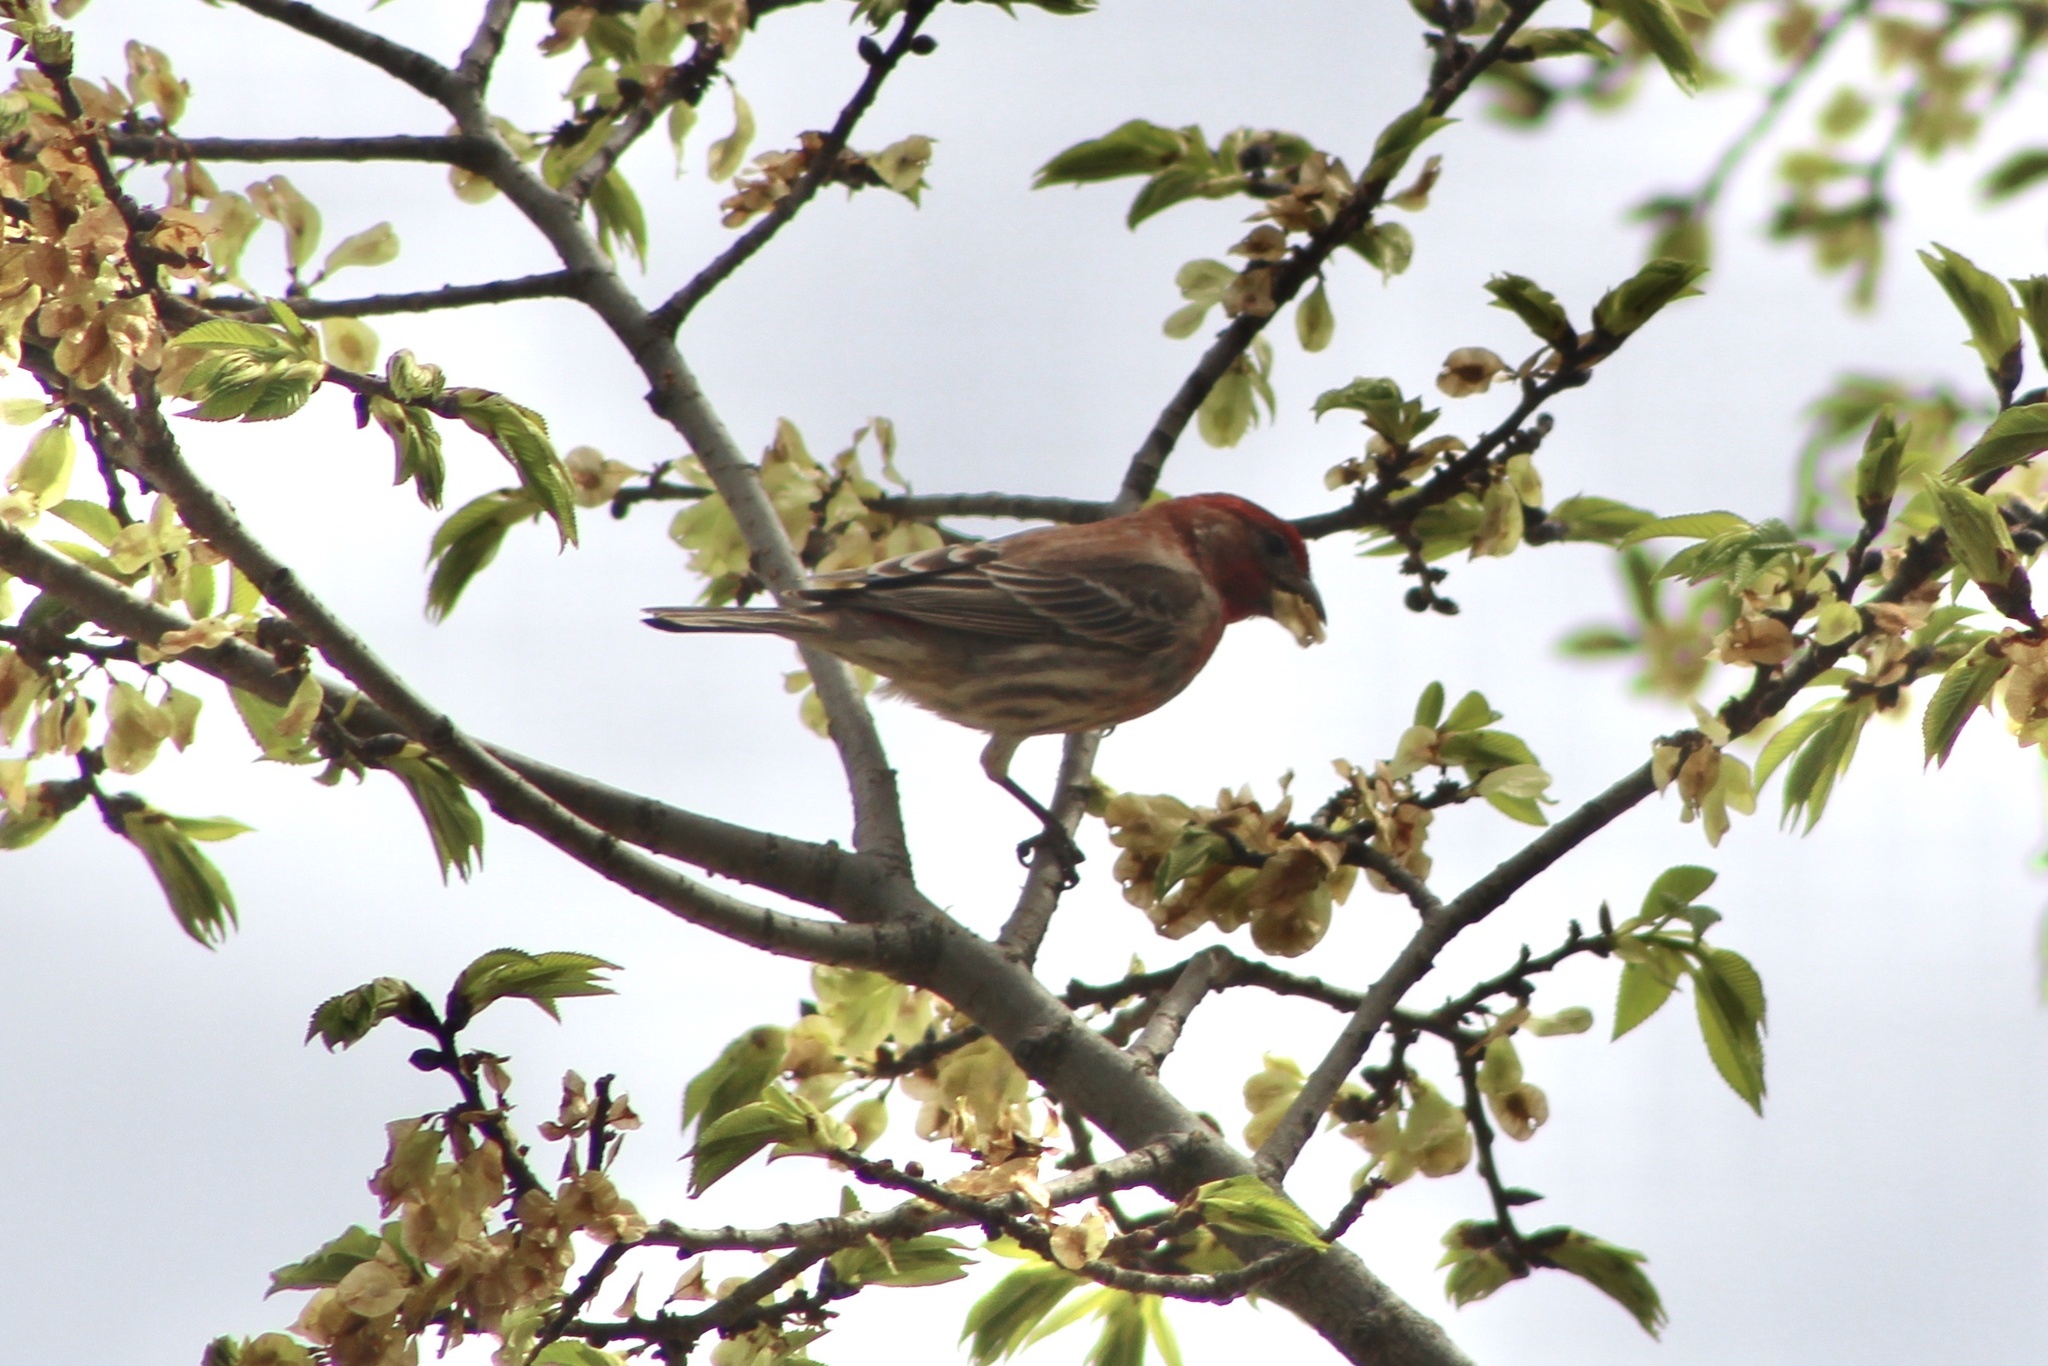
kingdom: Animalia
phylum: Chordata
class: Aves
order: Passeriformes
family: Fringillidae
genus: Haemorhous
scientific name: Haemorhous mexicanus
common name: House finch
